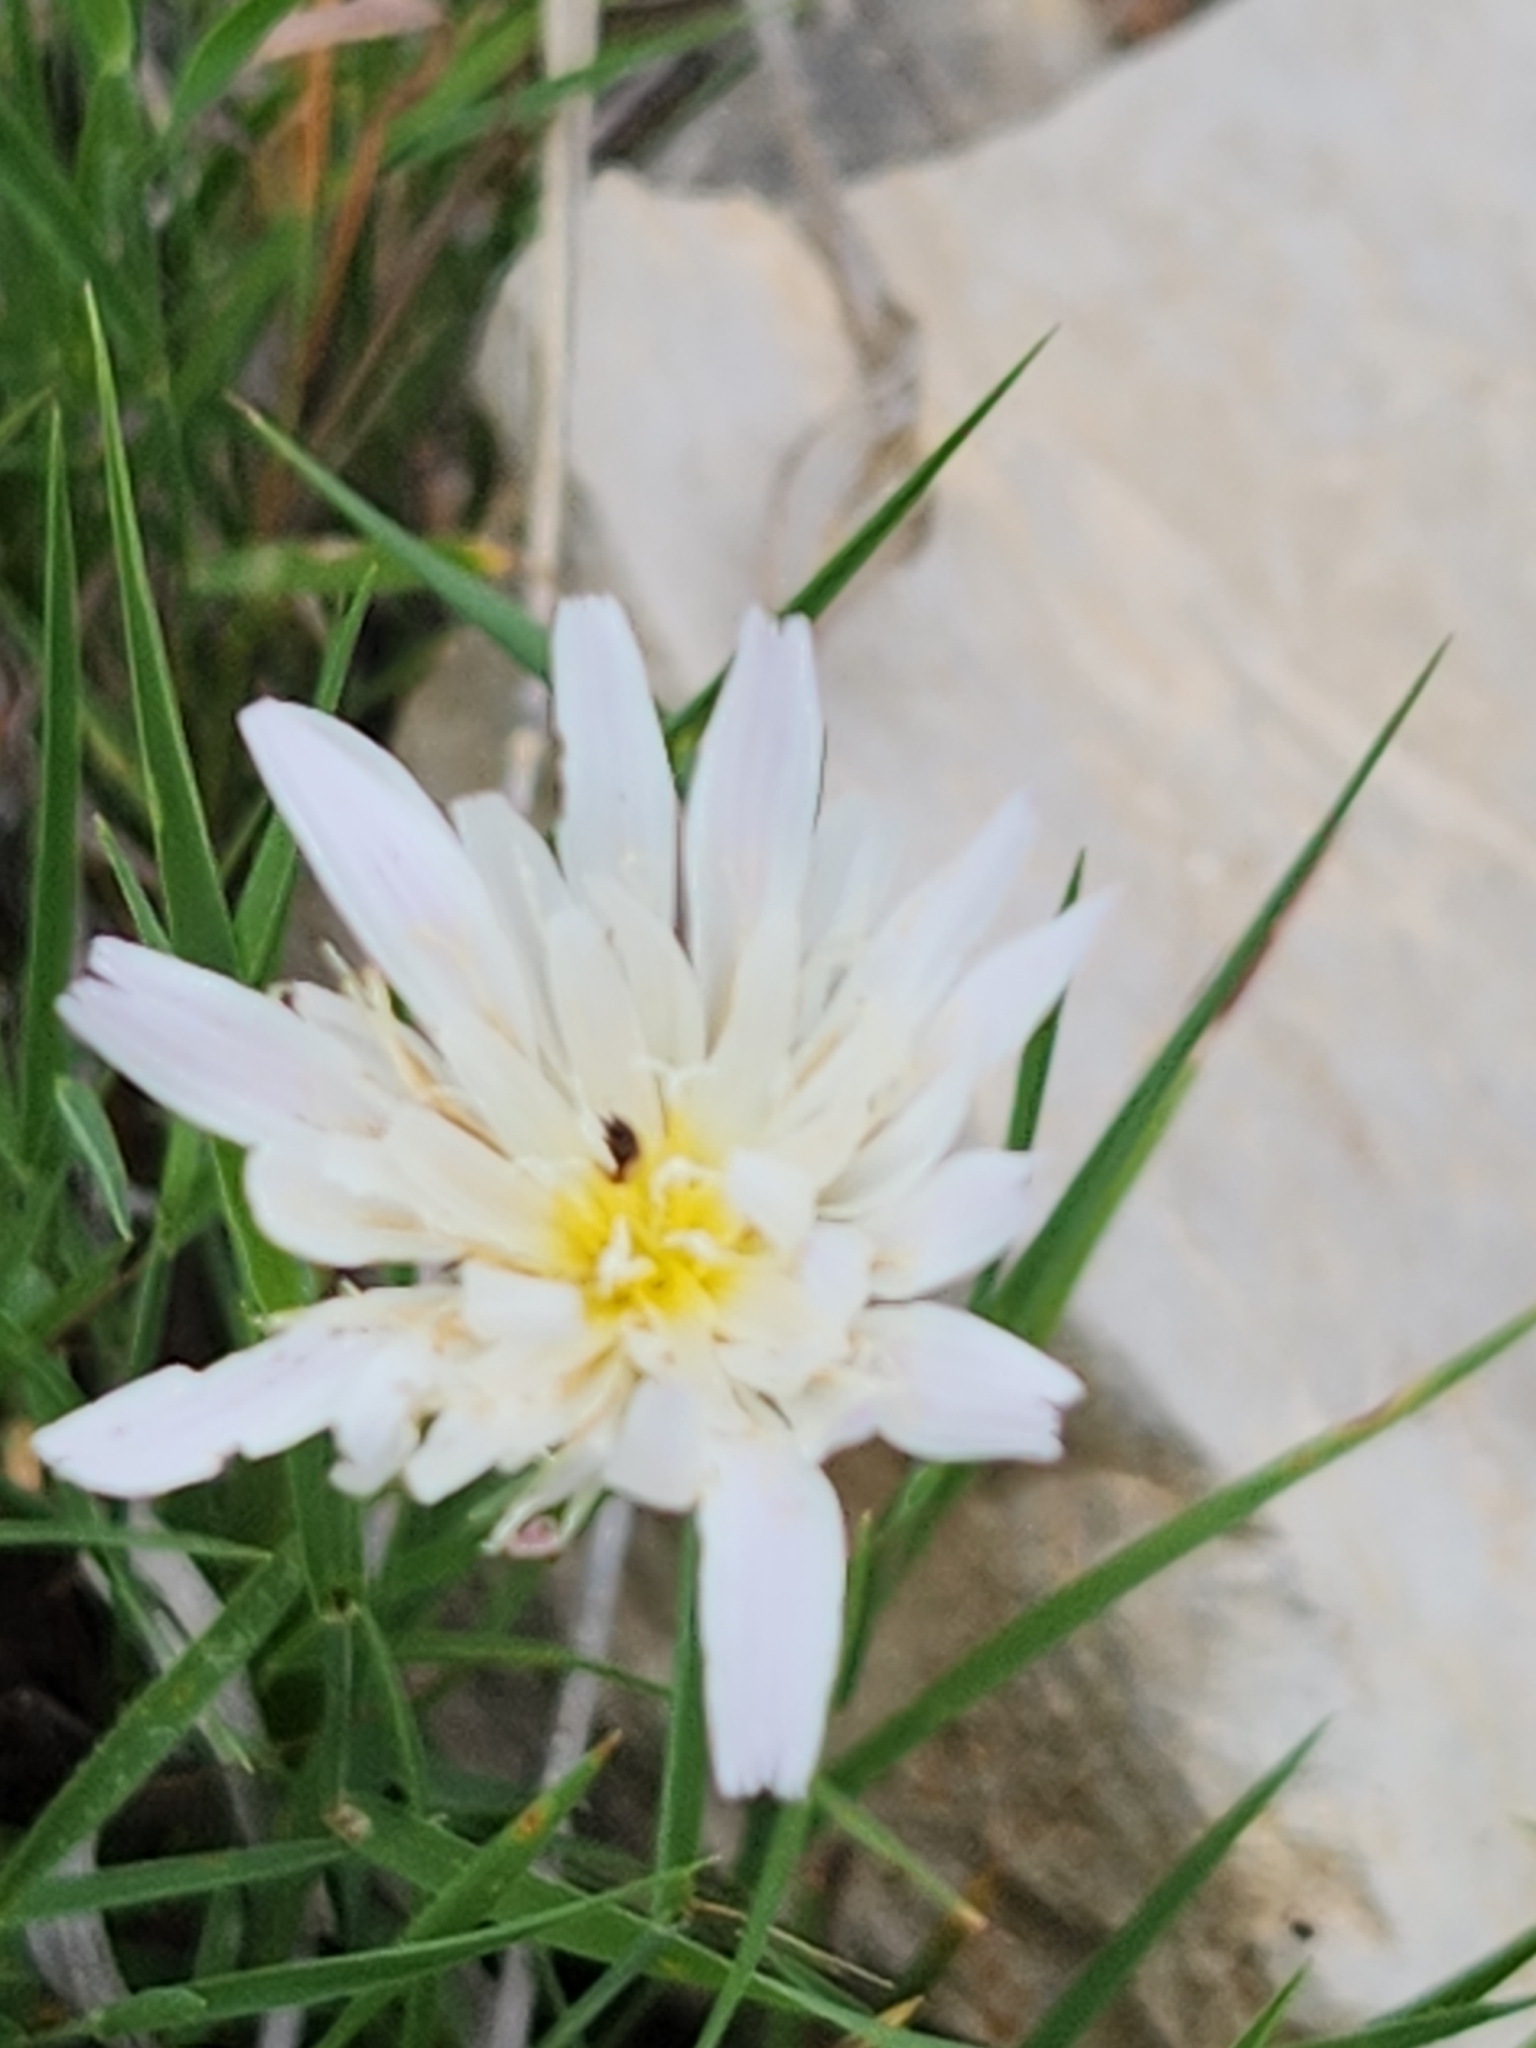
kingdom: Plantae
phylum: Tracheophyta
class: Magnoliopsida
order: Asterales
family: Asteraceae
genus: Pinaropappus
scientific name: Pinaropappus roseus
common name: Rock-lettuce
